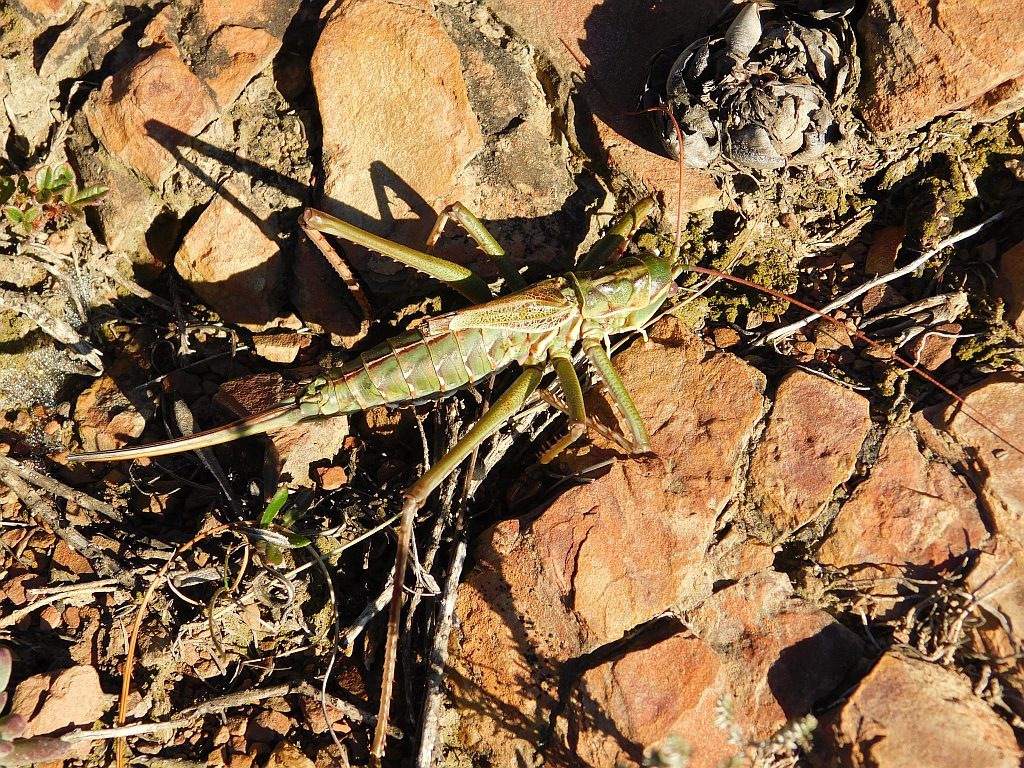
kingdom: Animalia
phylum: Arthropoda
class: Insecta
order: Orthoptera
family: Tettigoniidae
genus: Clonia
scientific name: Clonia melanoptera
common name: Giant black-winged clonia
